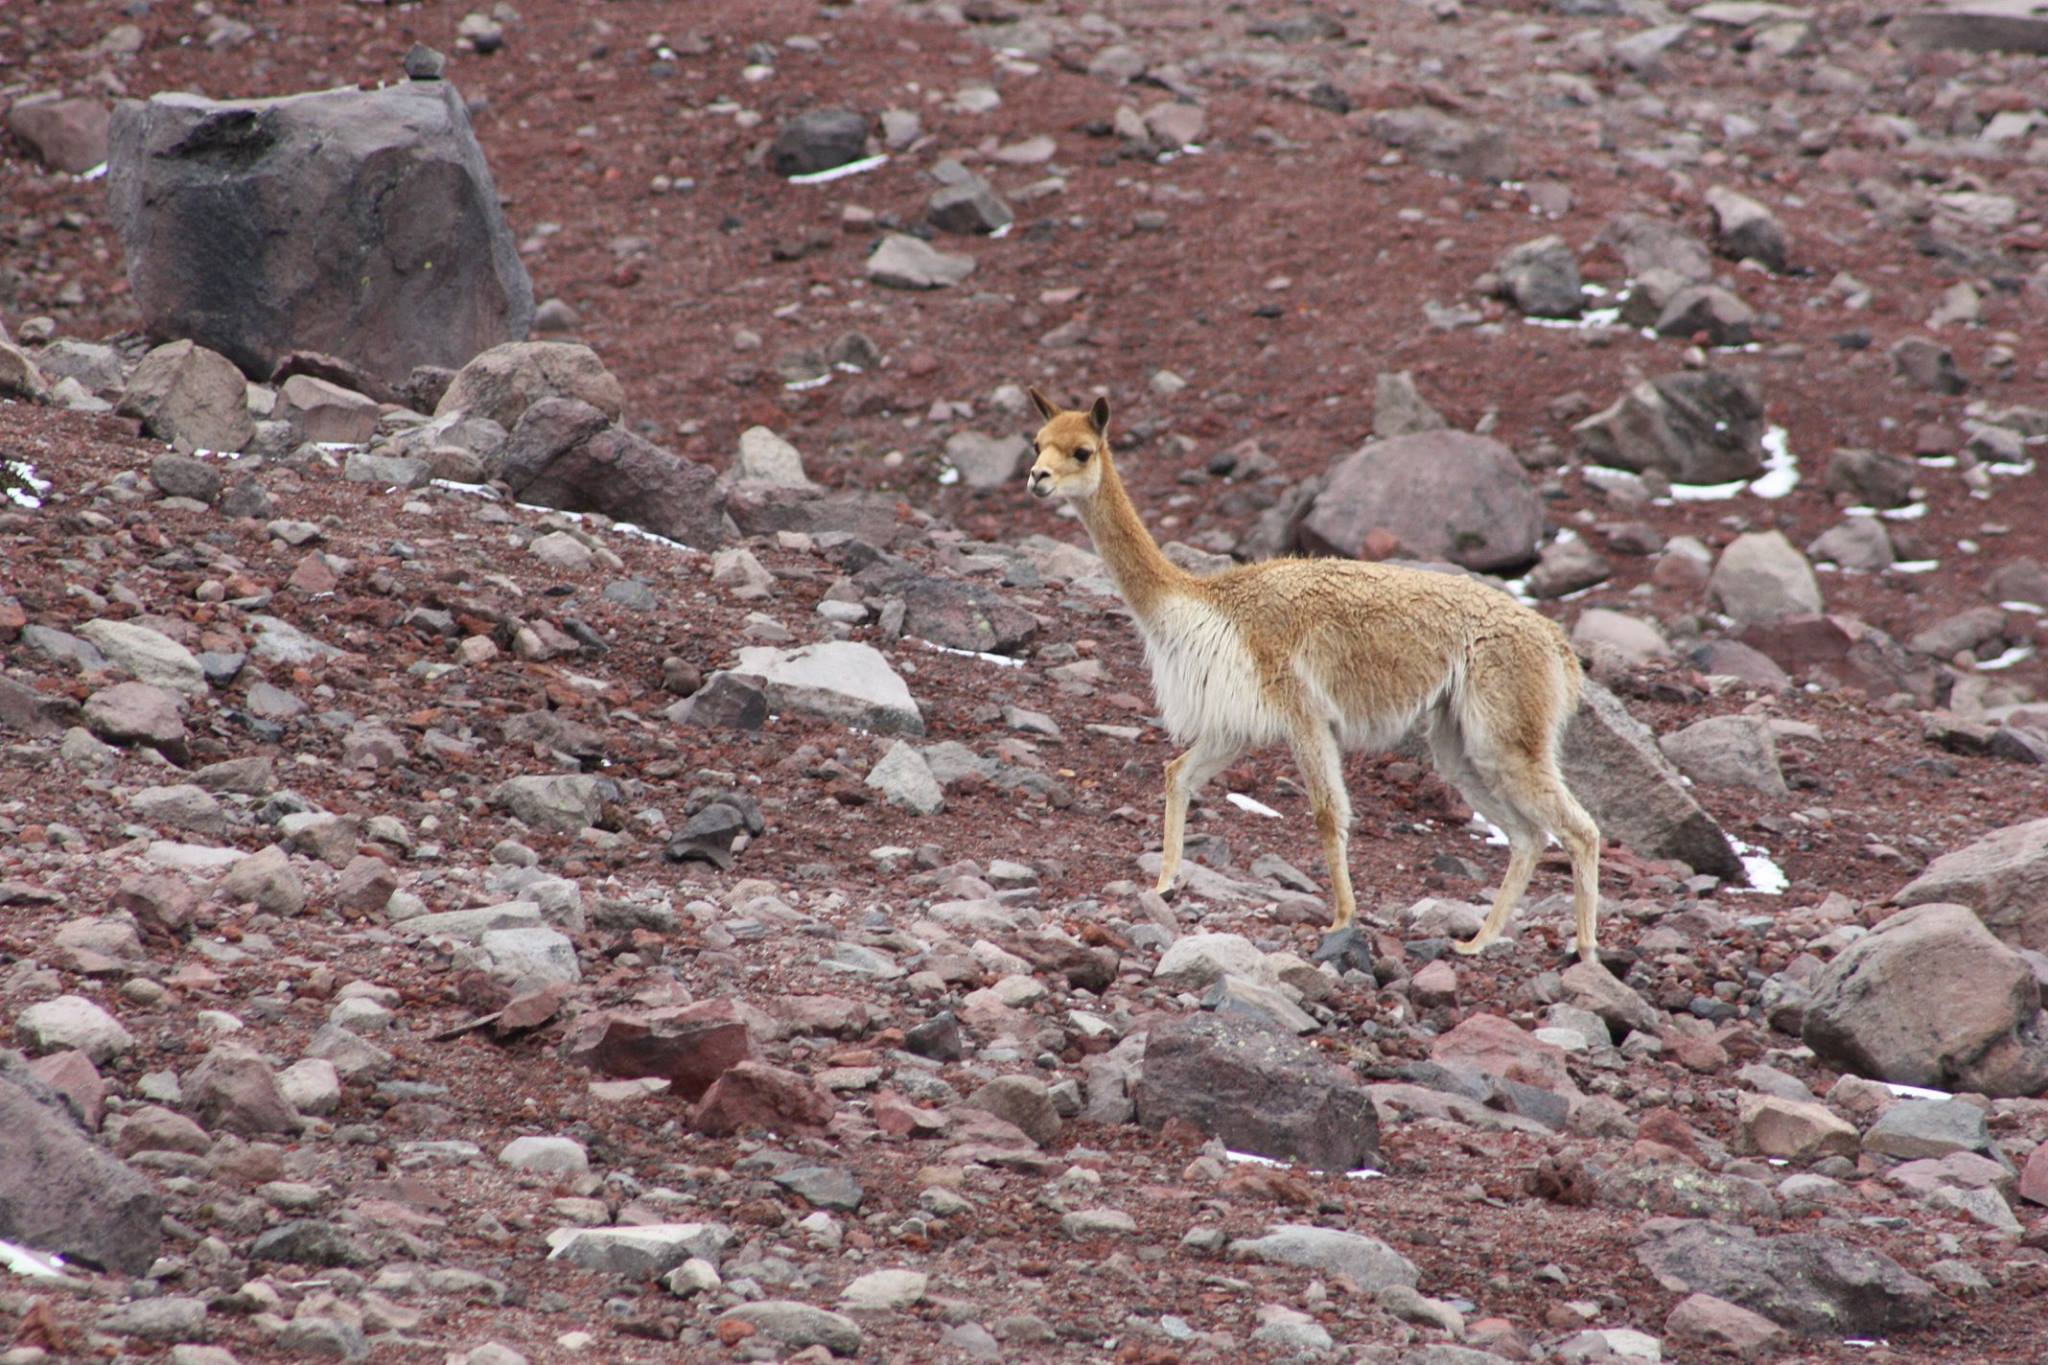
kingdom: Animalia
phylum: Chordata
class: Mammalia
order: Artiodactyla
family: Camelidae
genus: Vicugna
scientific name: Vicugna vicugna
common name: Vicugna
